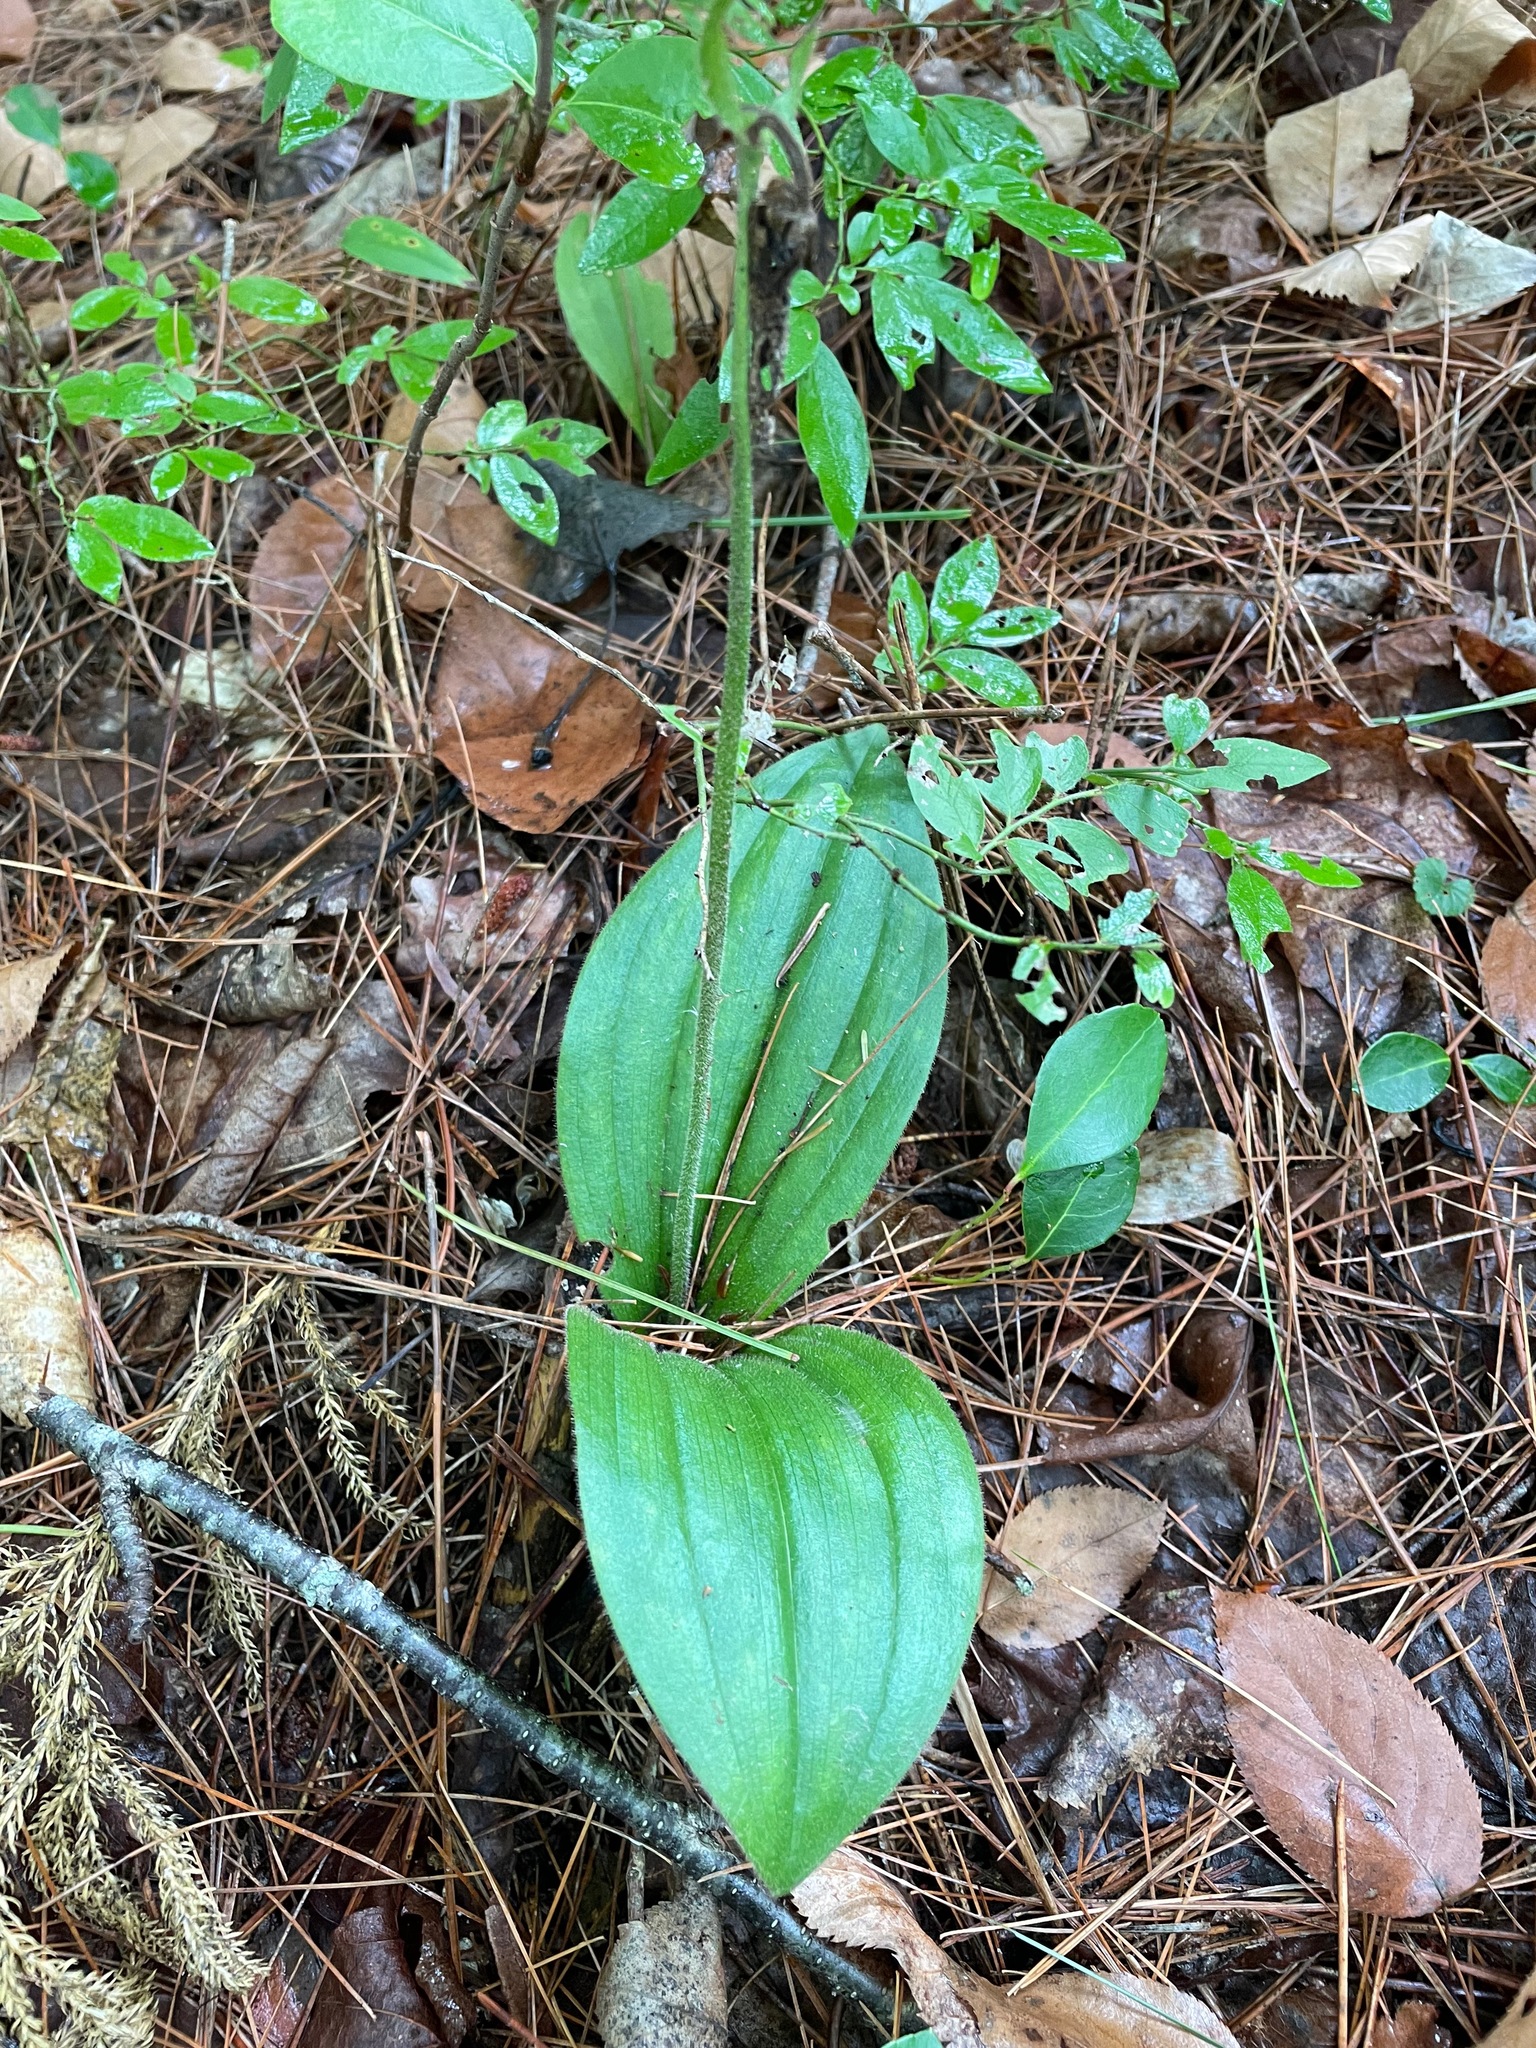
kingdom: Plantae
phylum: Tracheophyta
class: Liliopsida
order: Asparagales
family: Orchidaceae
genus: Cypripedium
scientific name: Cypripedium acaule
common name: Pink lady's-slipper
